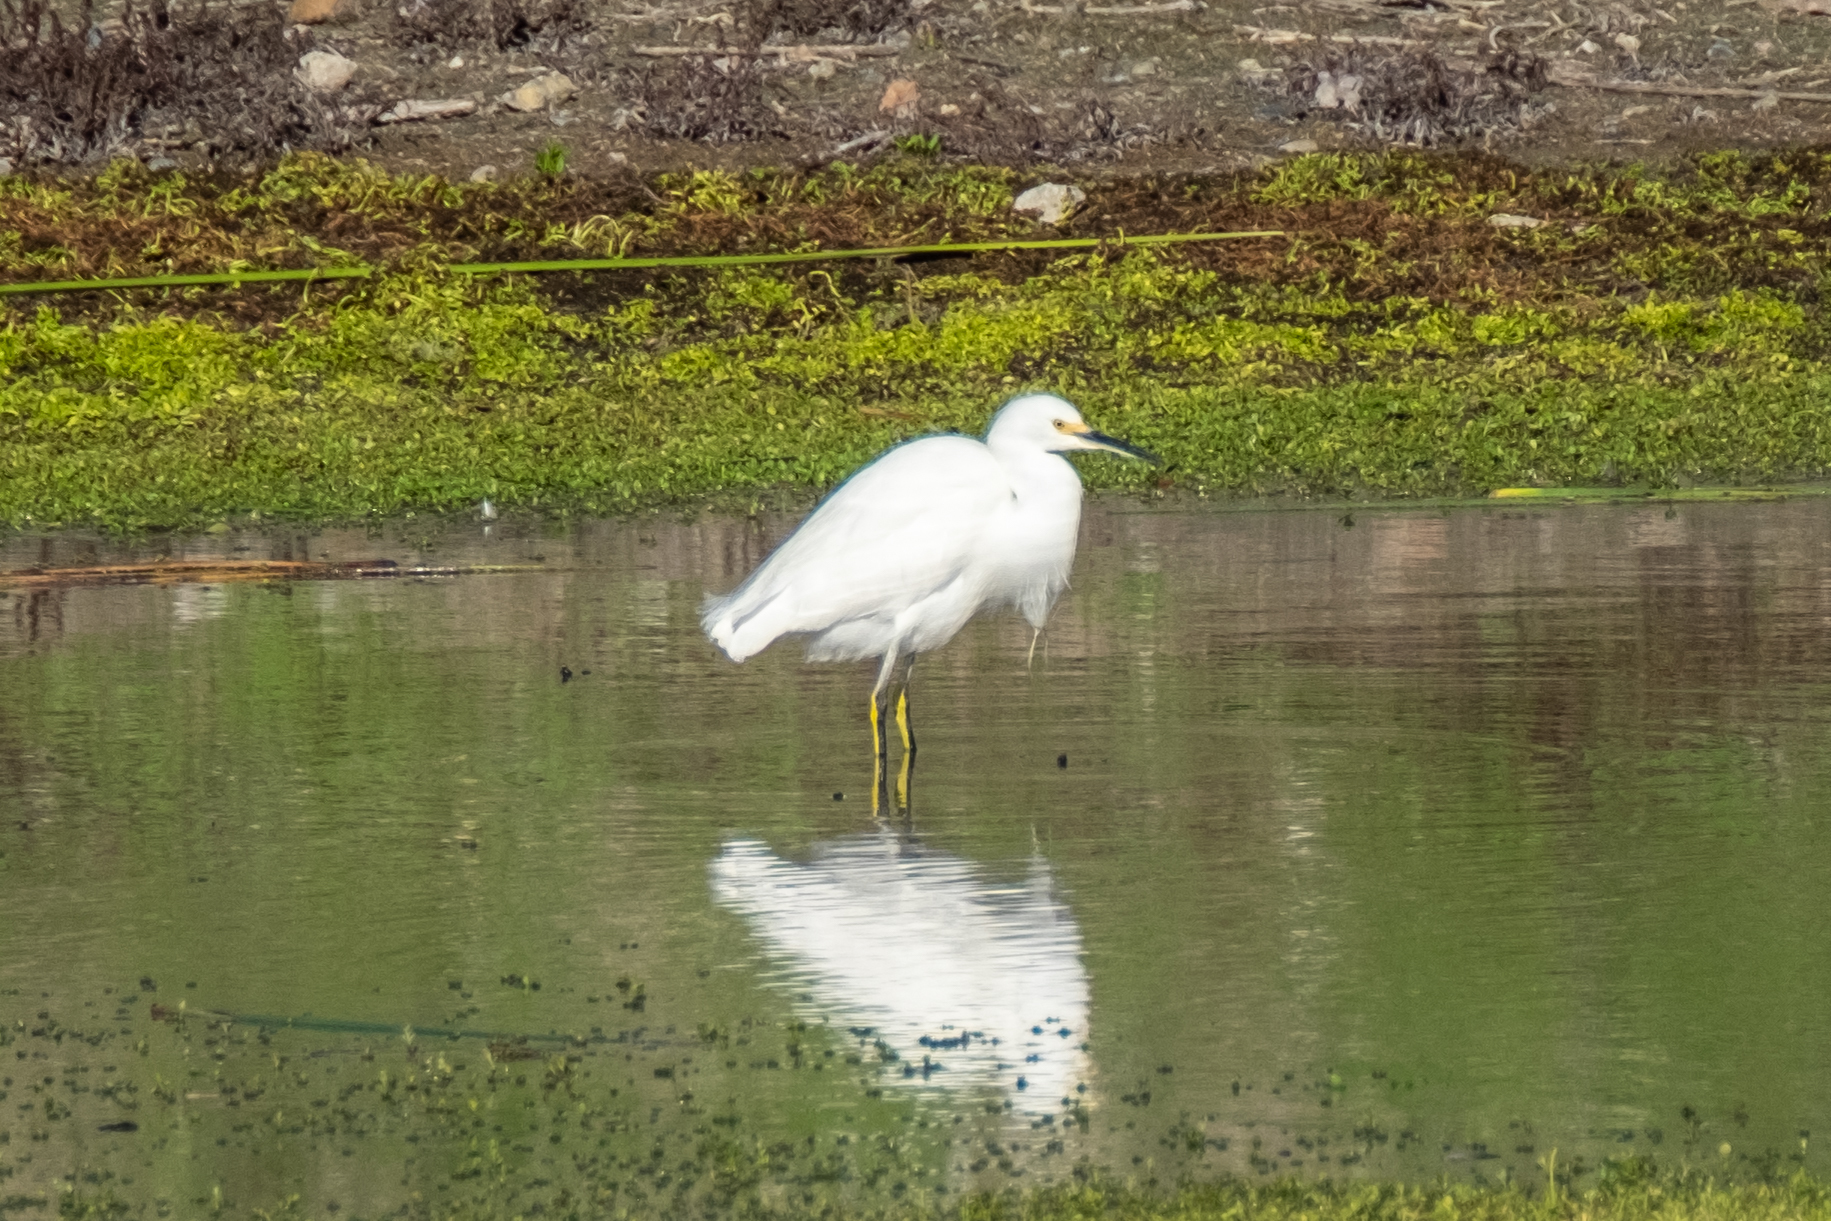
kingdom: Animalia
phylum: Chordata
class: Aves
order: Pelecaniformes
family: Ardeidae
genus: Egretta
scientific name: Egretta thula
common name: Snowy egret
